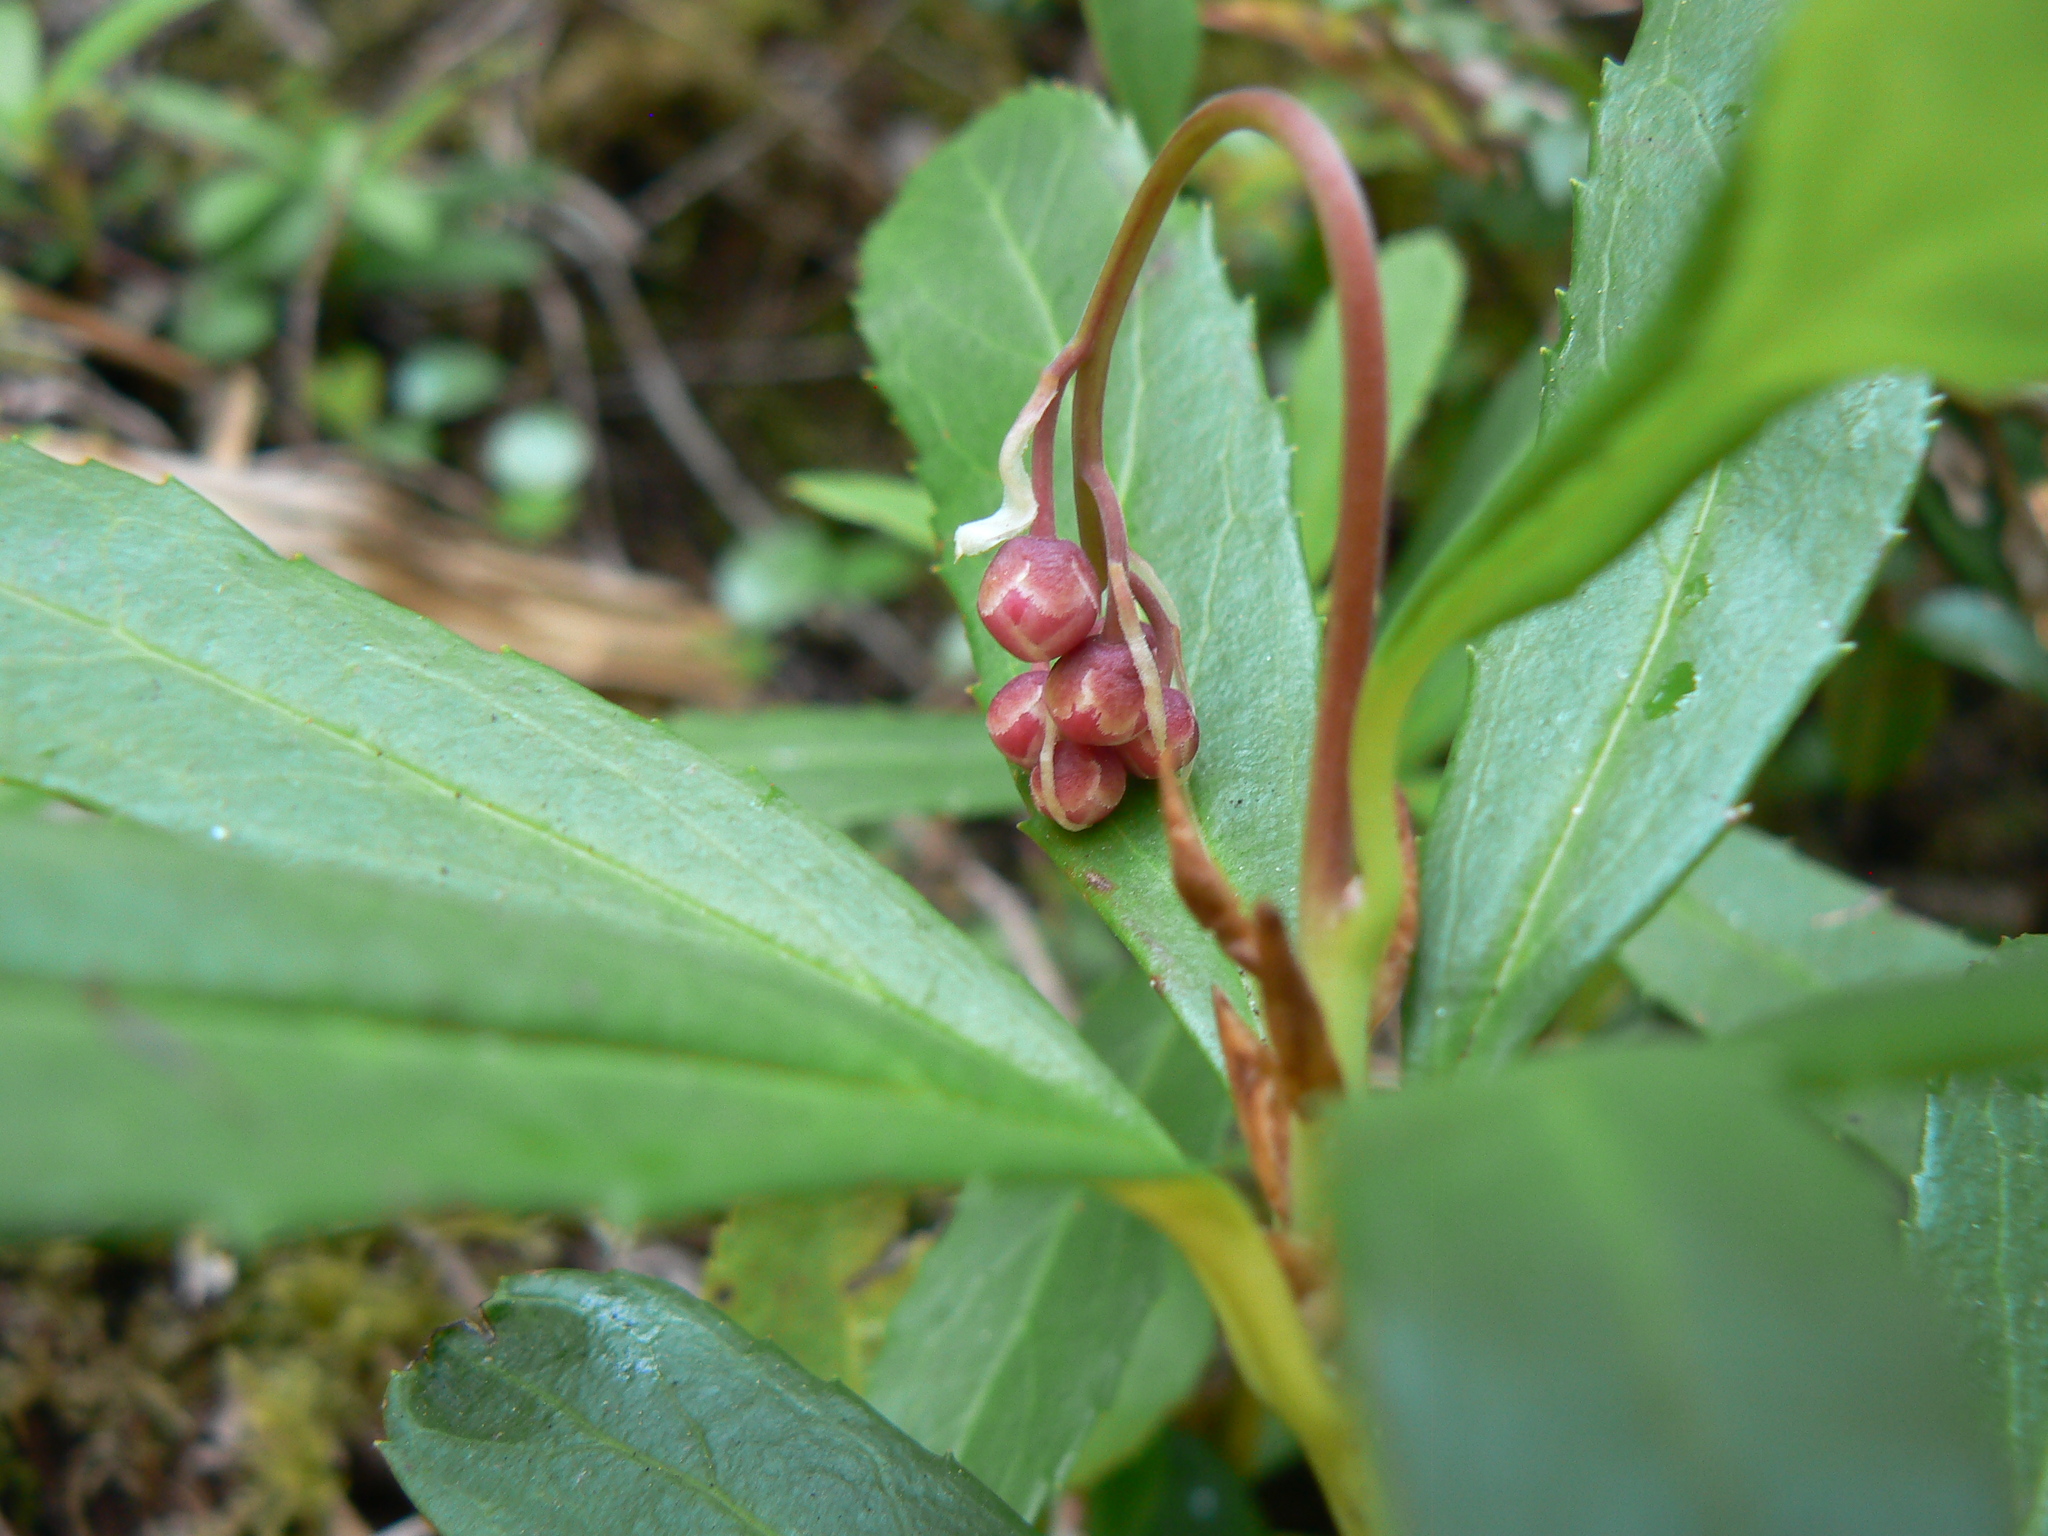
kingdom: Plantae
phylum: Tracheophyta
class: Magnoliopsida
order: Ericales
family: Ericaceae
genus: Chimaphila
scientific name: Chimaphila umbellata
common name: Pipsissewa
